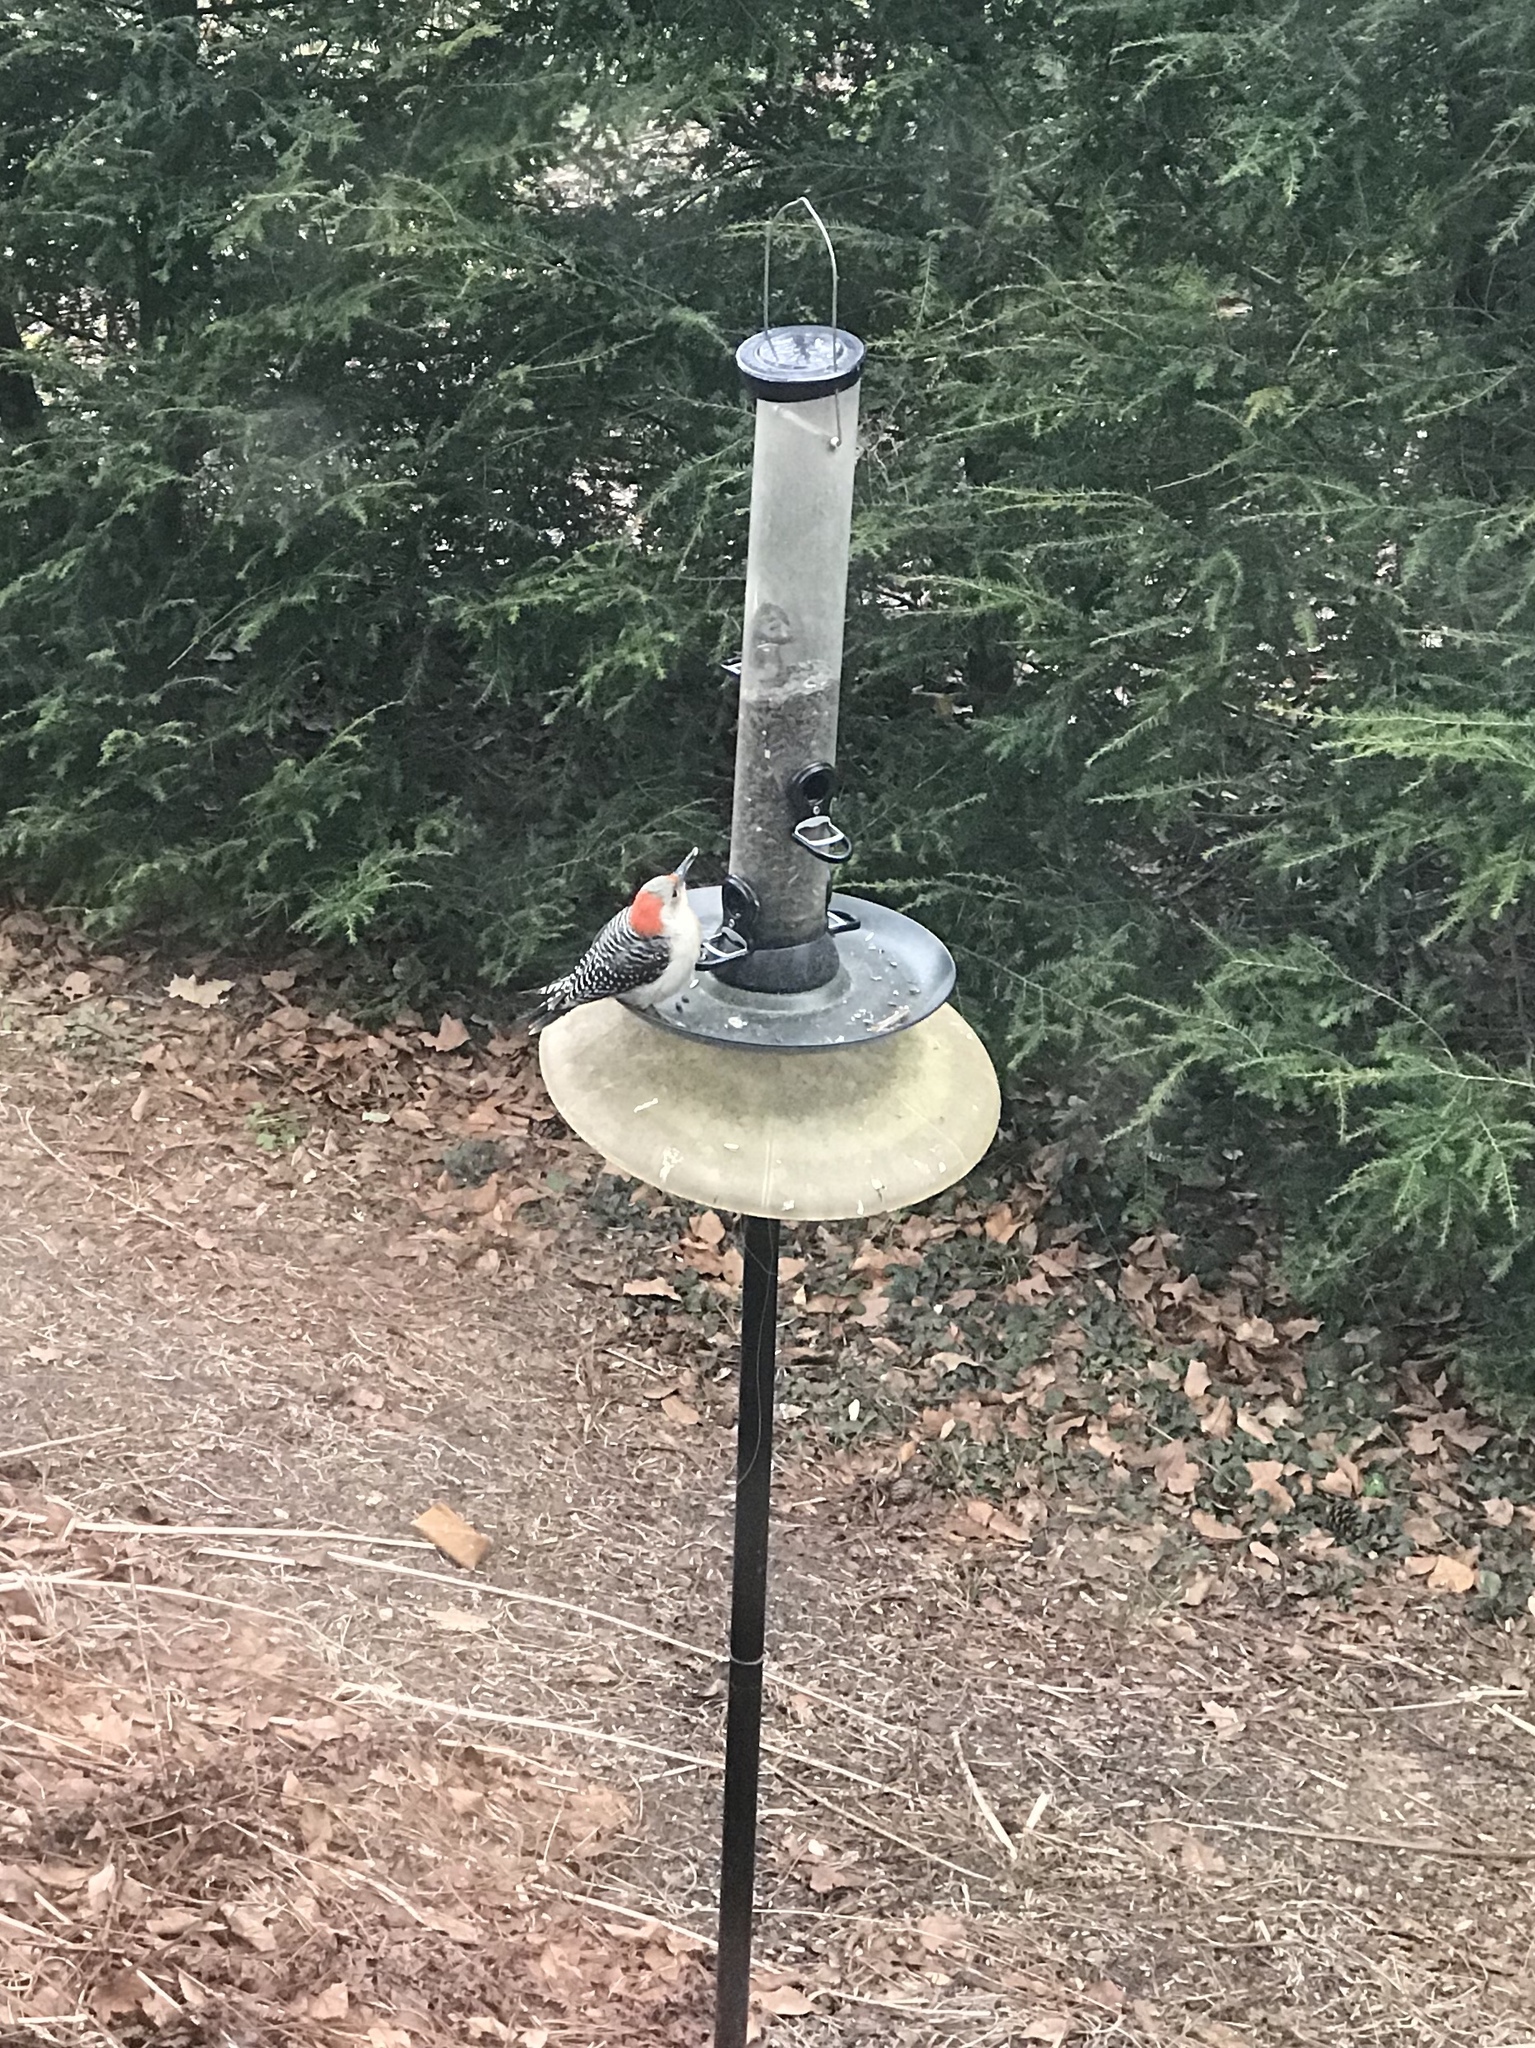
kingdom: Animalia
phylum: Chordata
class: Aves
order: Piciformes
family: Picidae
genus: Melanerpes
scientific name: Melanerpes carolinus
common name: Red-bellied woodpecker
